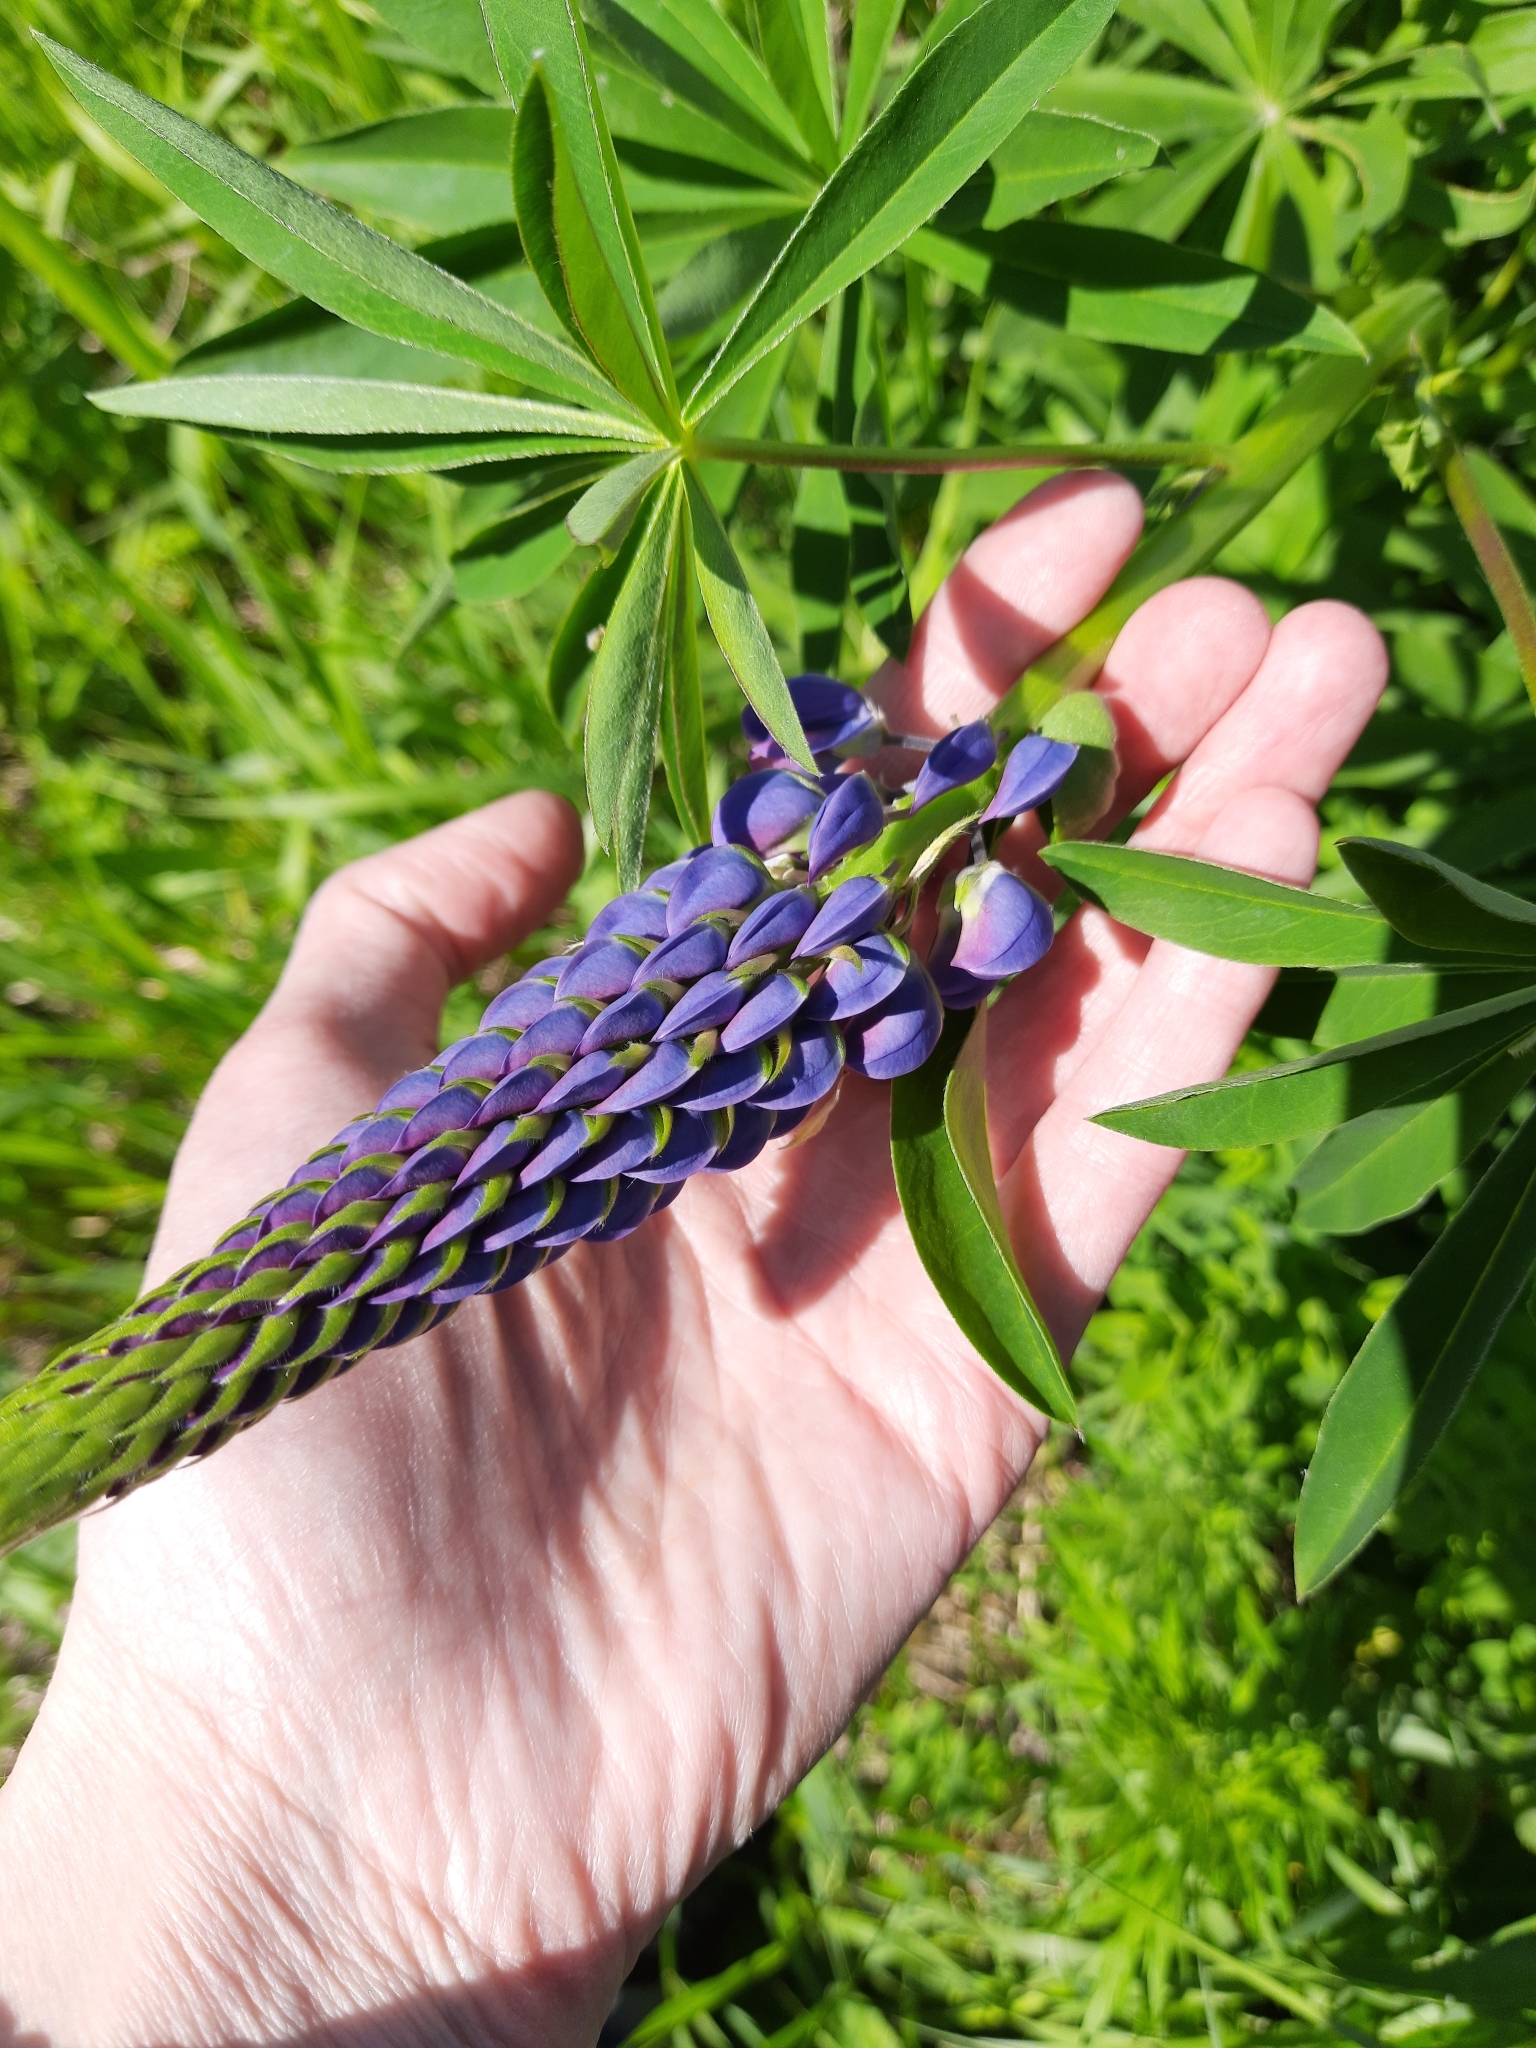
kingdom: Plantae
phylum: Tracheophyta
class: Magnoliopsida
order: Fabales
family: Fabaceae
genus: Lupinus
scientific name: Lupinus polyphyllus
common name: Garden lupin
